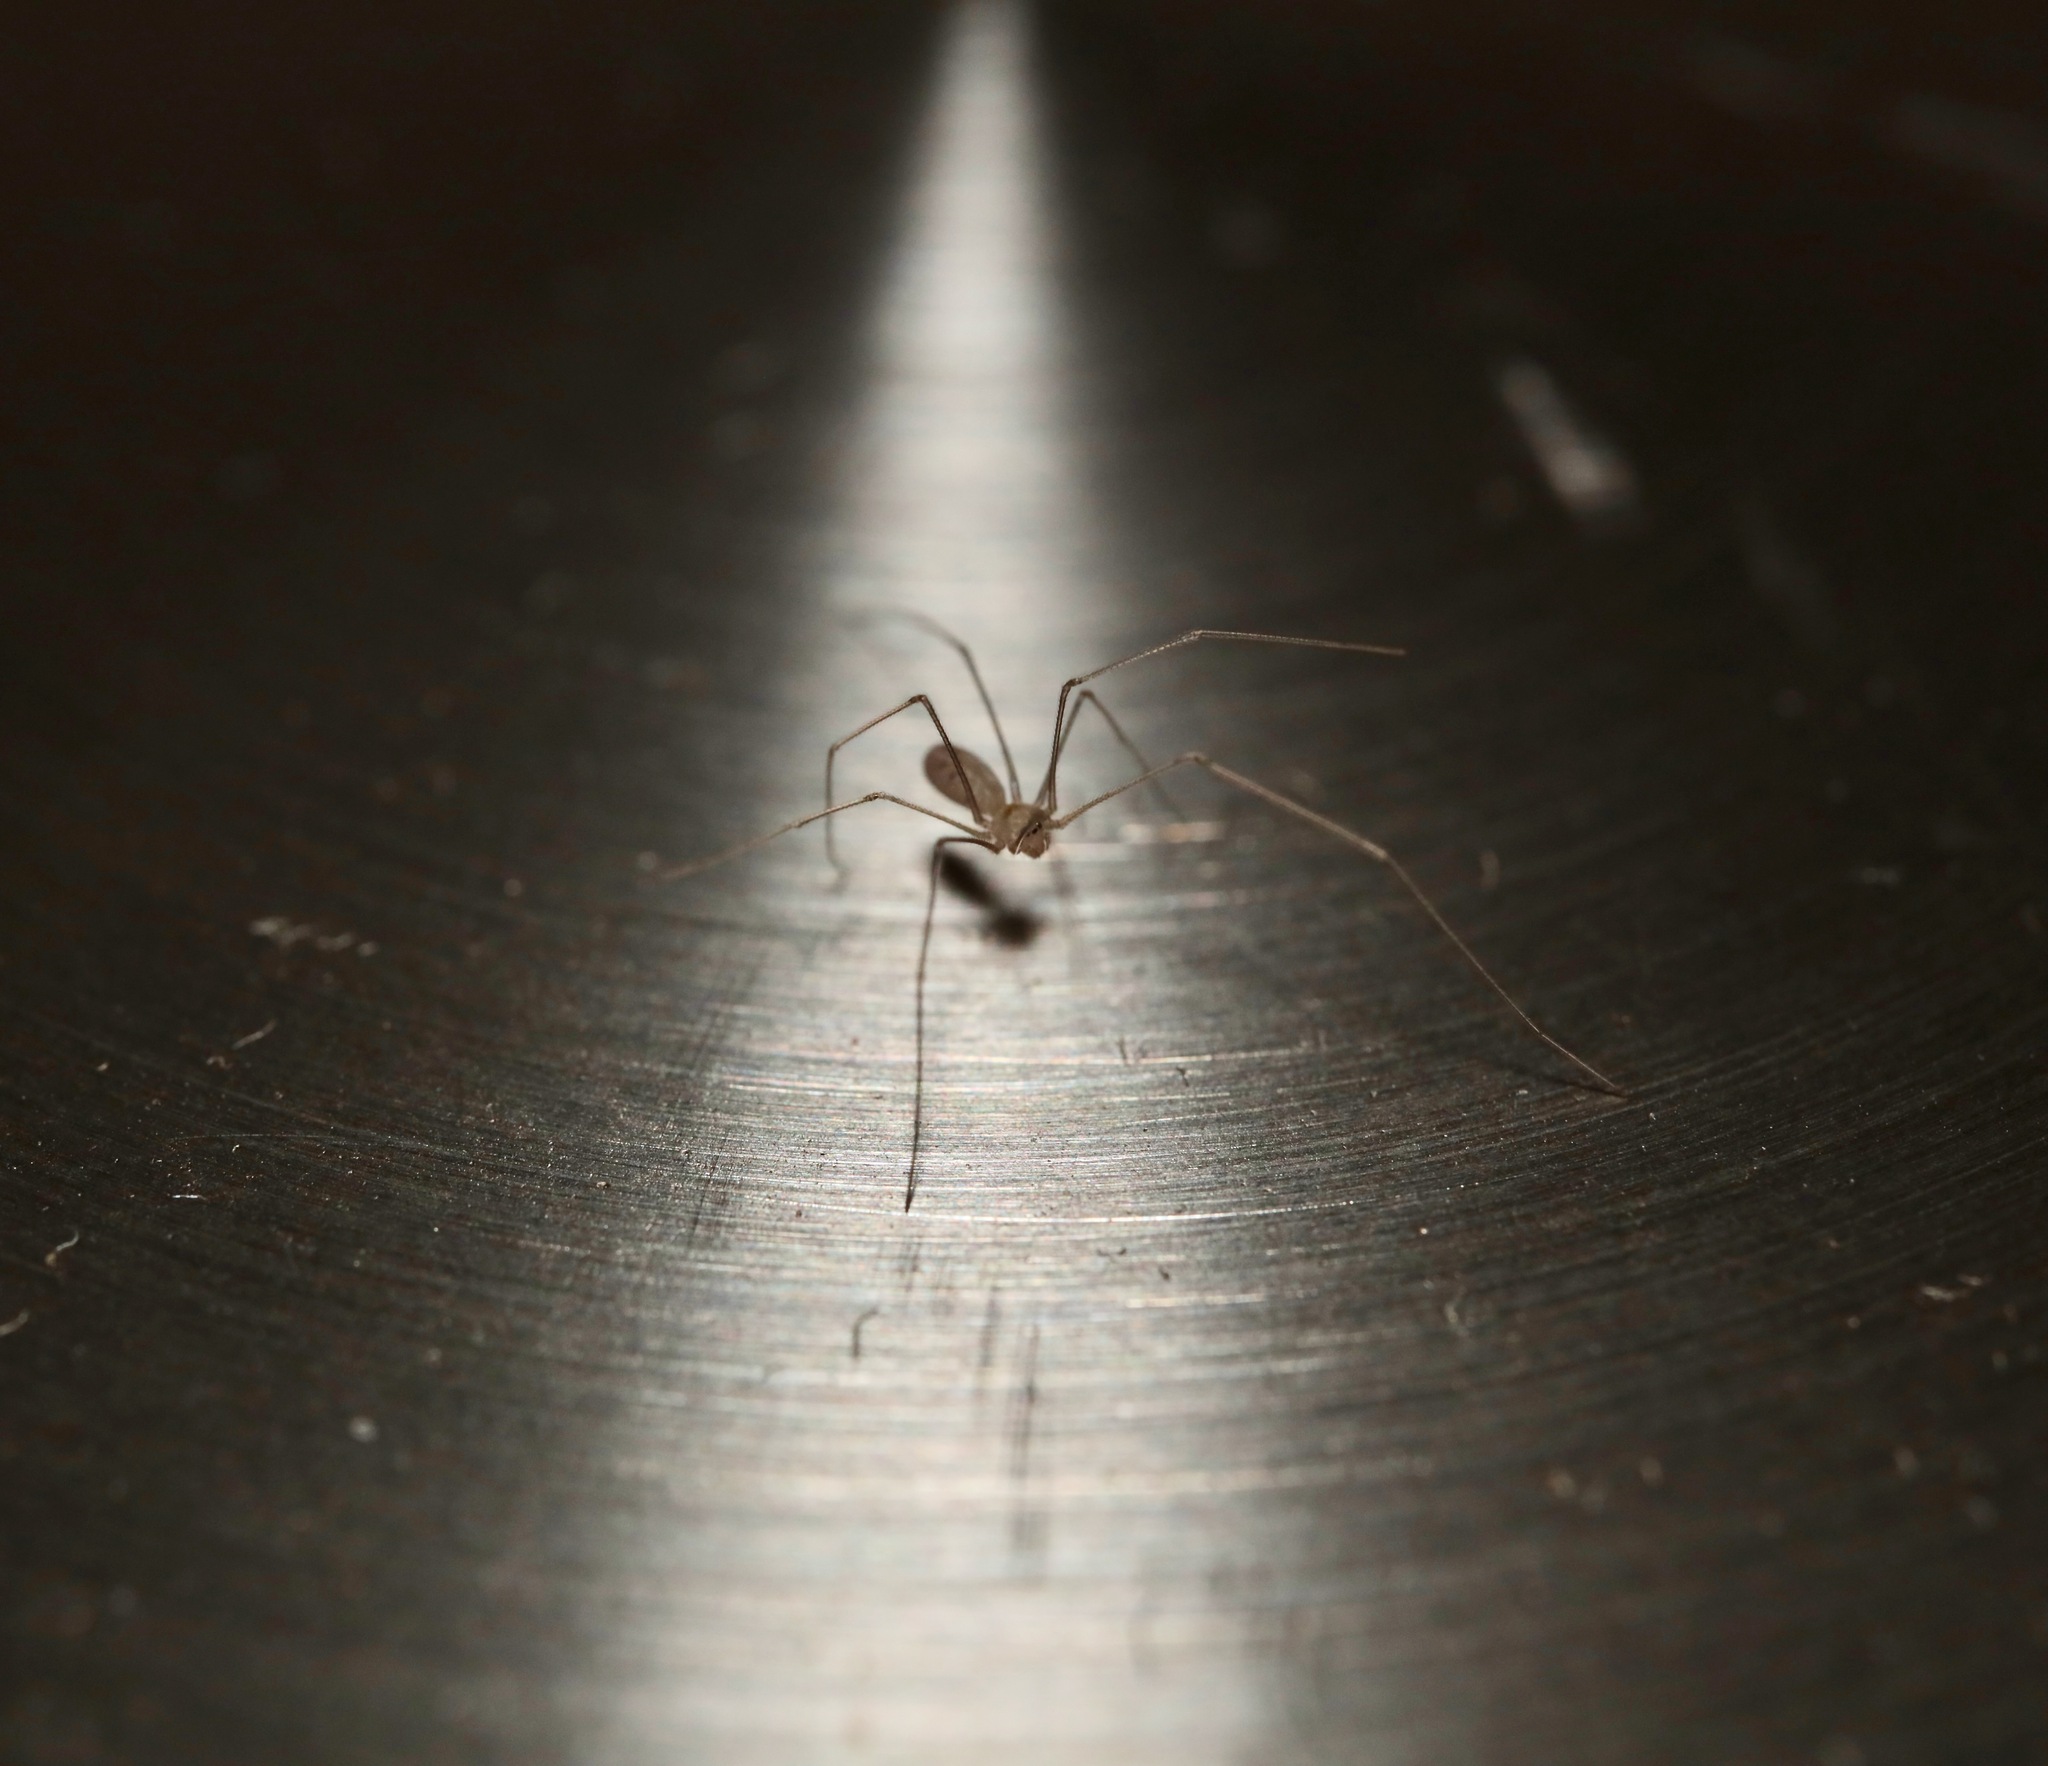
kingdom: Animalia
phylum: Arthropoda
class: Arachnida
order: Araneae
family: Pholcidae
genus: Pholcus
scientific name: Pholcus phalangioides
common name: Longbodied cellar spider
